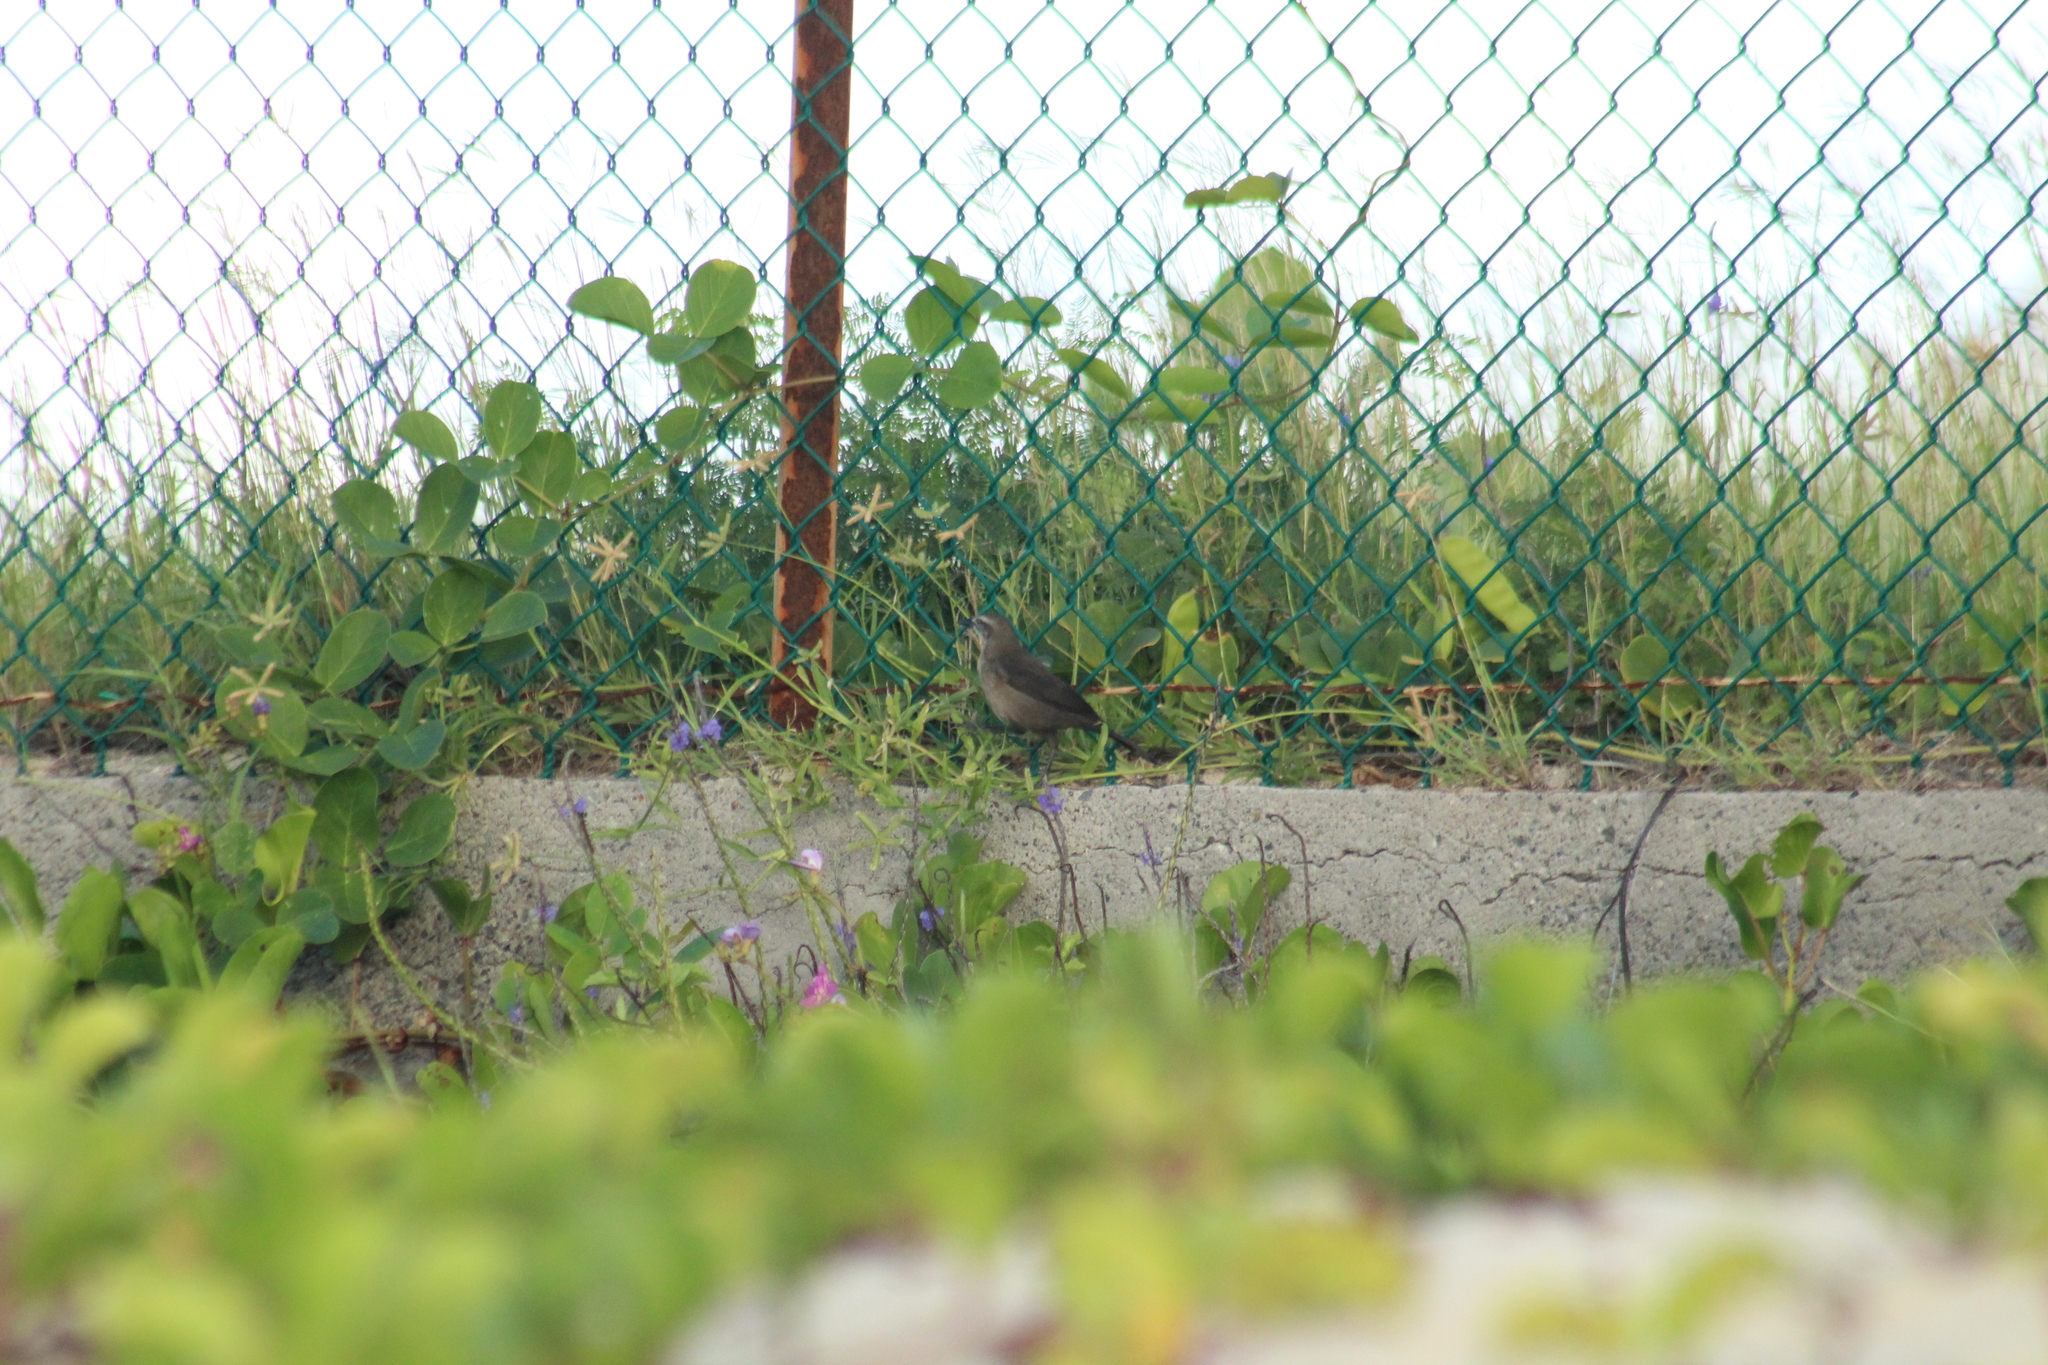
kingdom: Animalia
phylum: Chordata
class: Aves
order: Passeriformes
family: Icteridae
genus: Quiscalus
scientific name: Quiscalus lugubris
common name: Carib grackle
